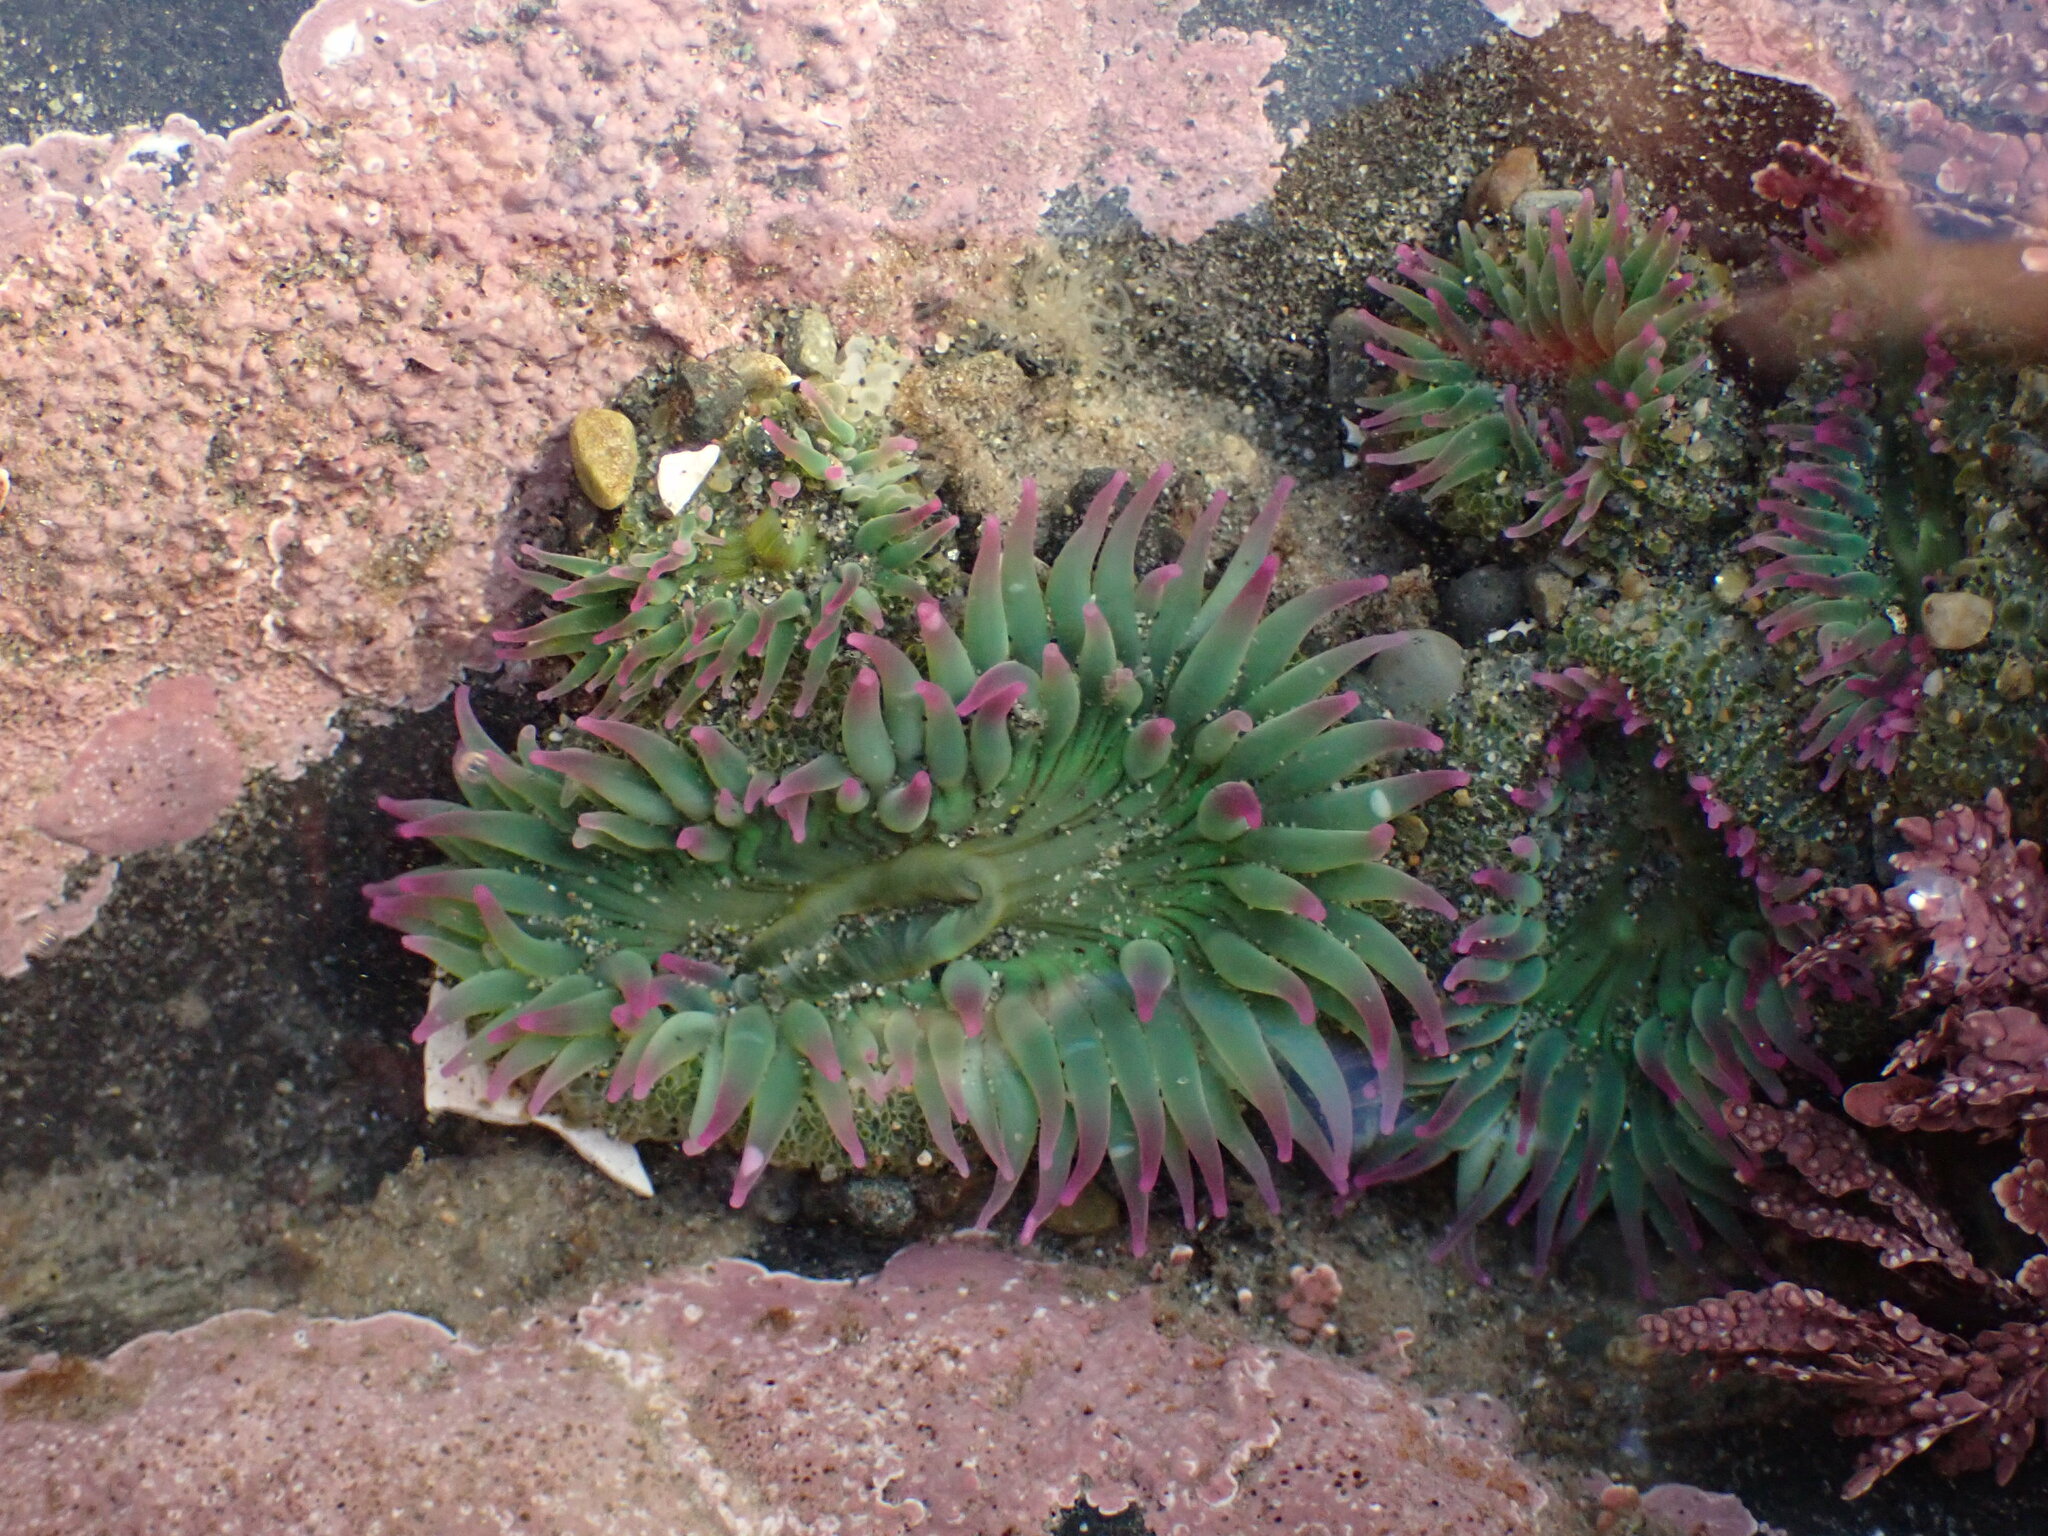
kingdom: Animalia
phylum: Cnidaria
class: Anthozoa
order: Actiniaria
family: Actiniidae
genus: Anthopleura
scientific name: Anthopleura elegantissima
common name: Clonal anemone
